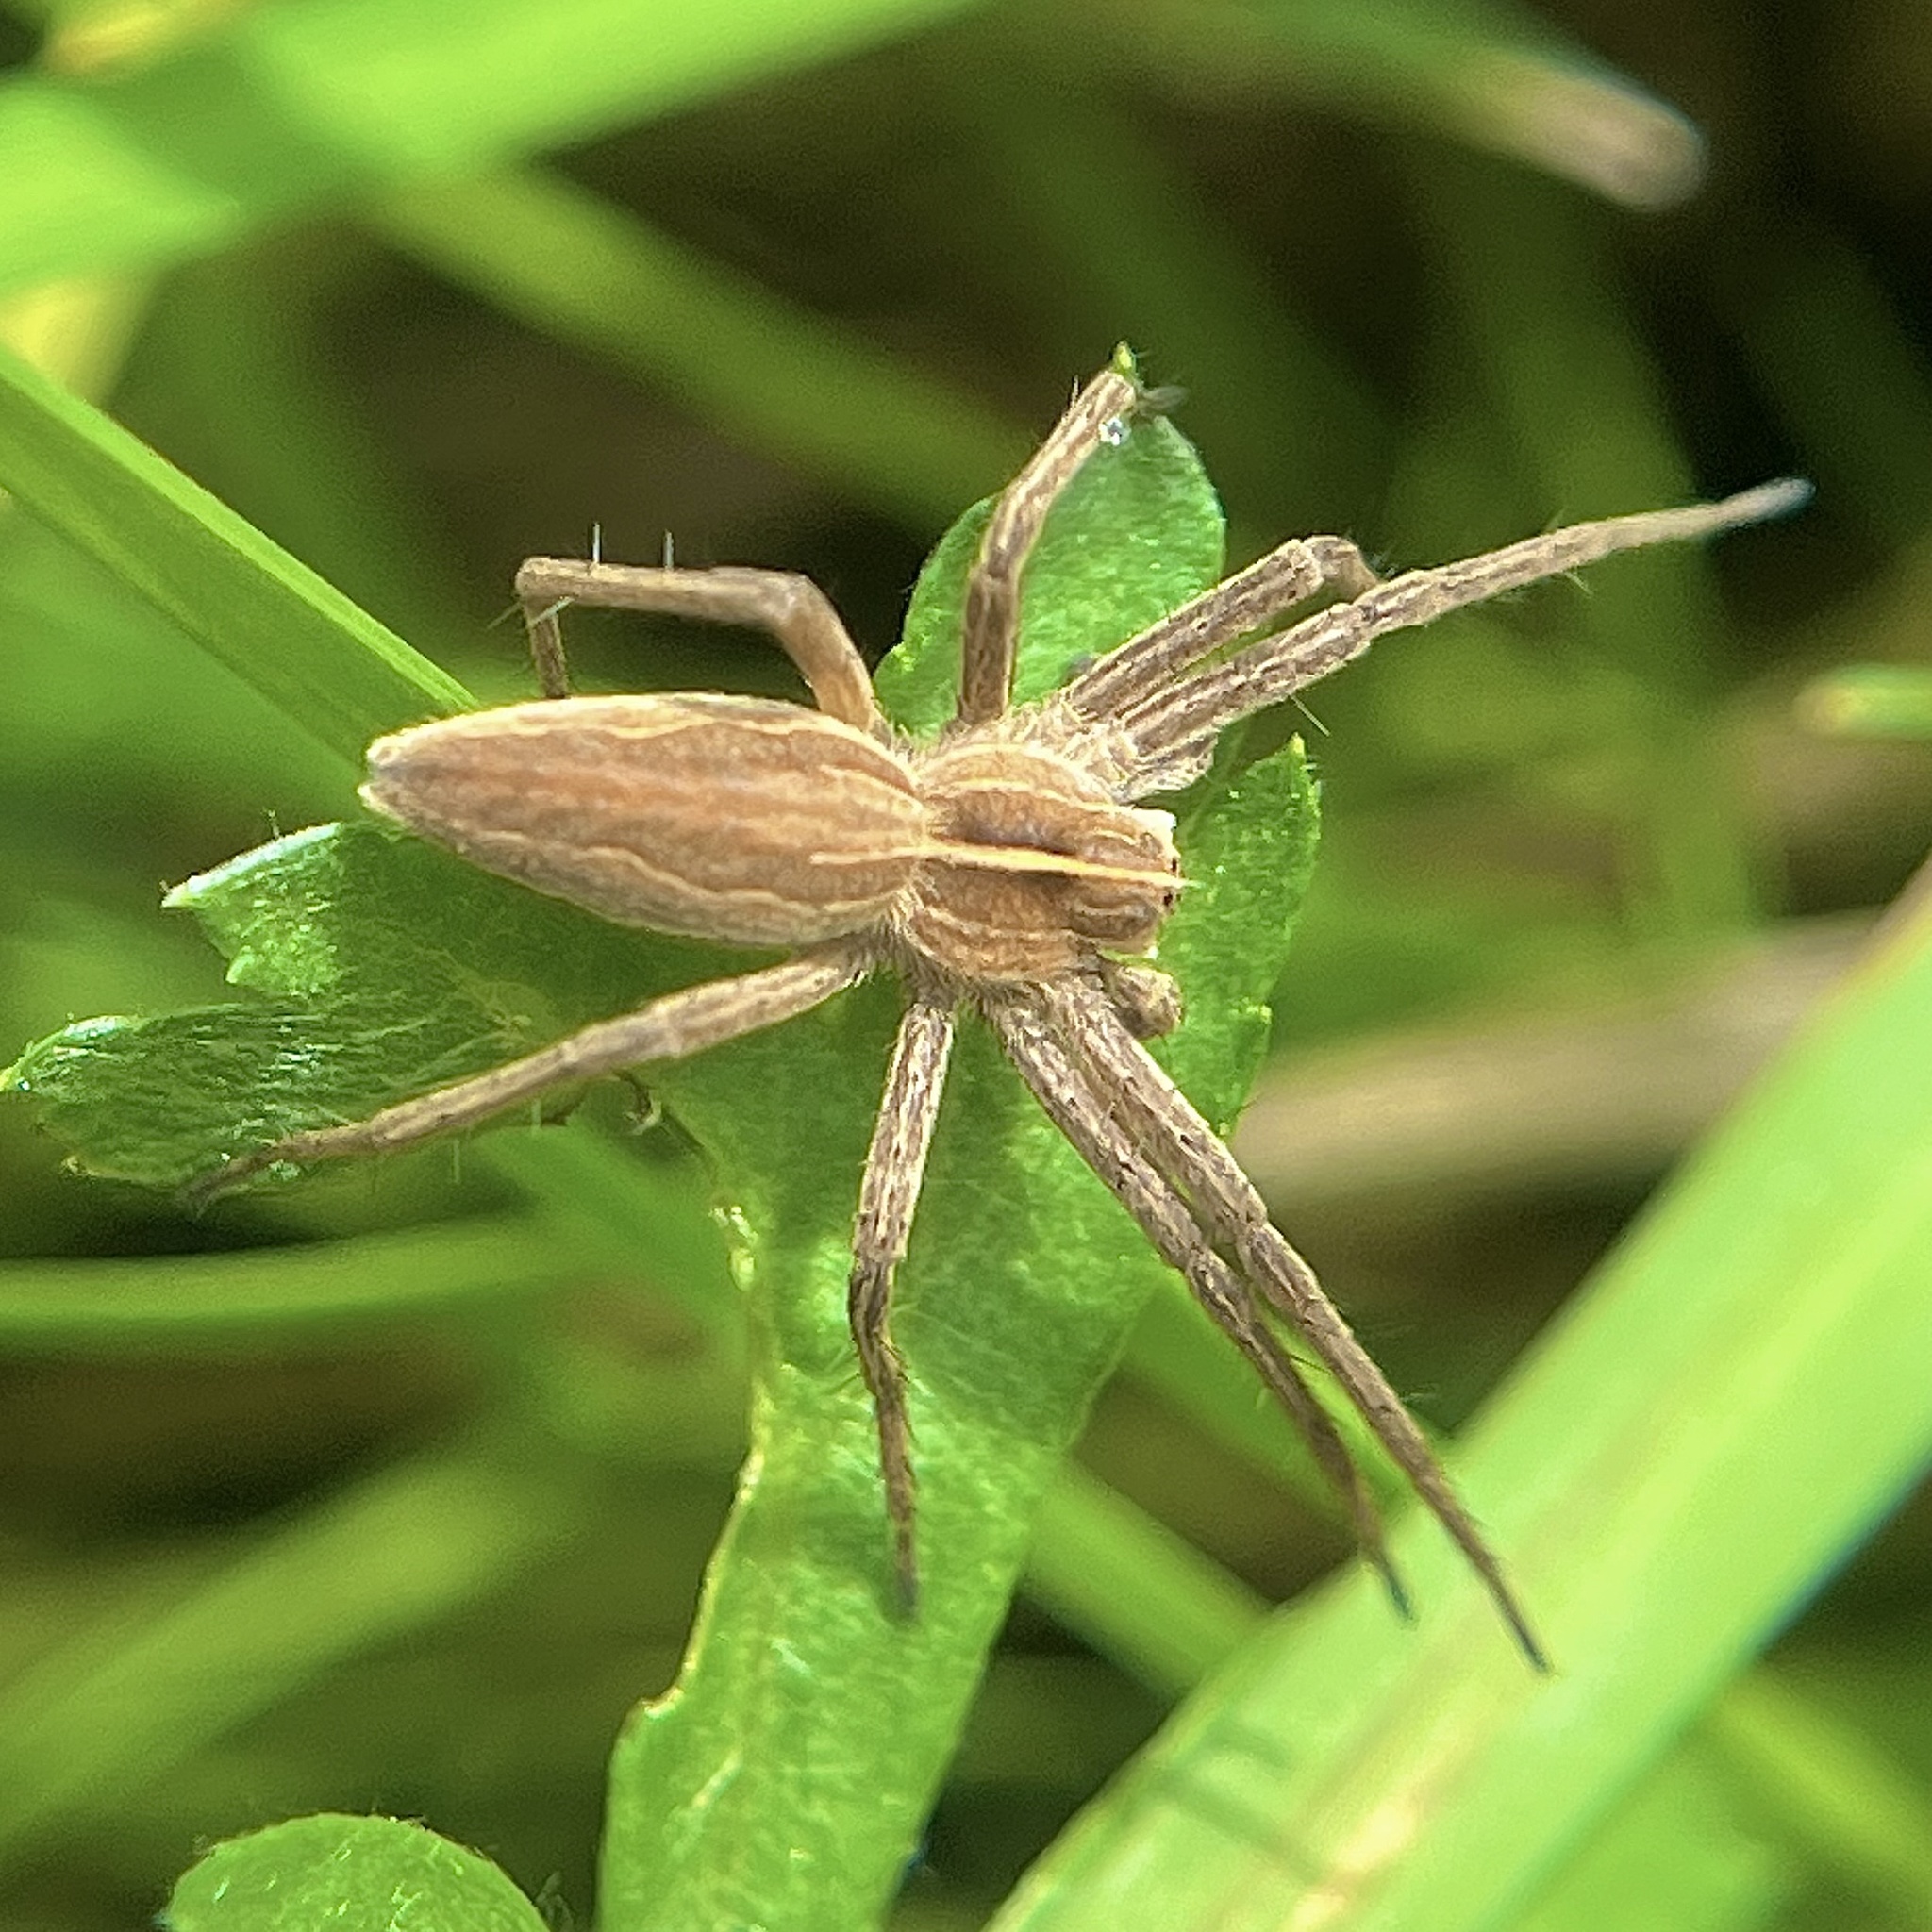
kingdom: Animalia
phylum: Arthropoda
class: Arachnida
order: Araneae
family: Pisauridae
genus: Pisaura
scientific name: Pisaura mirabilis
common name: Tent spider
